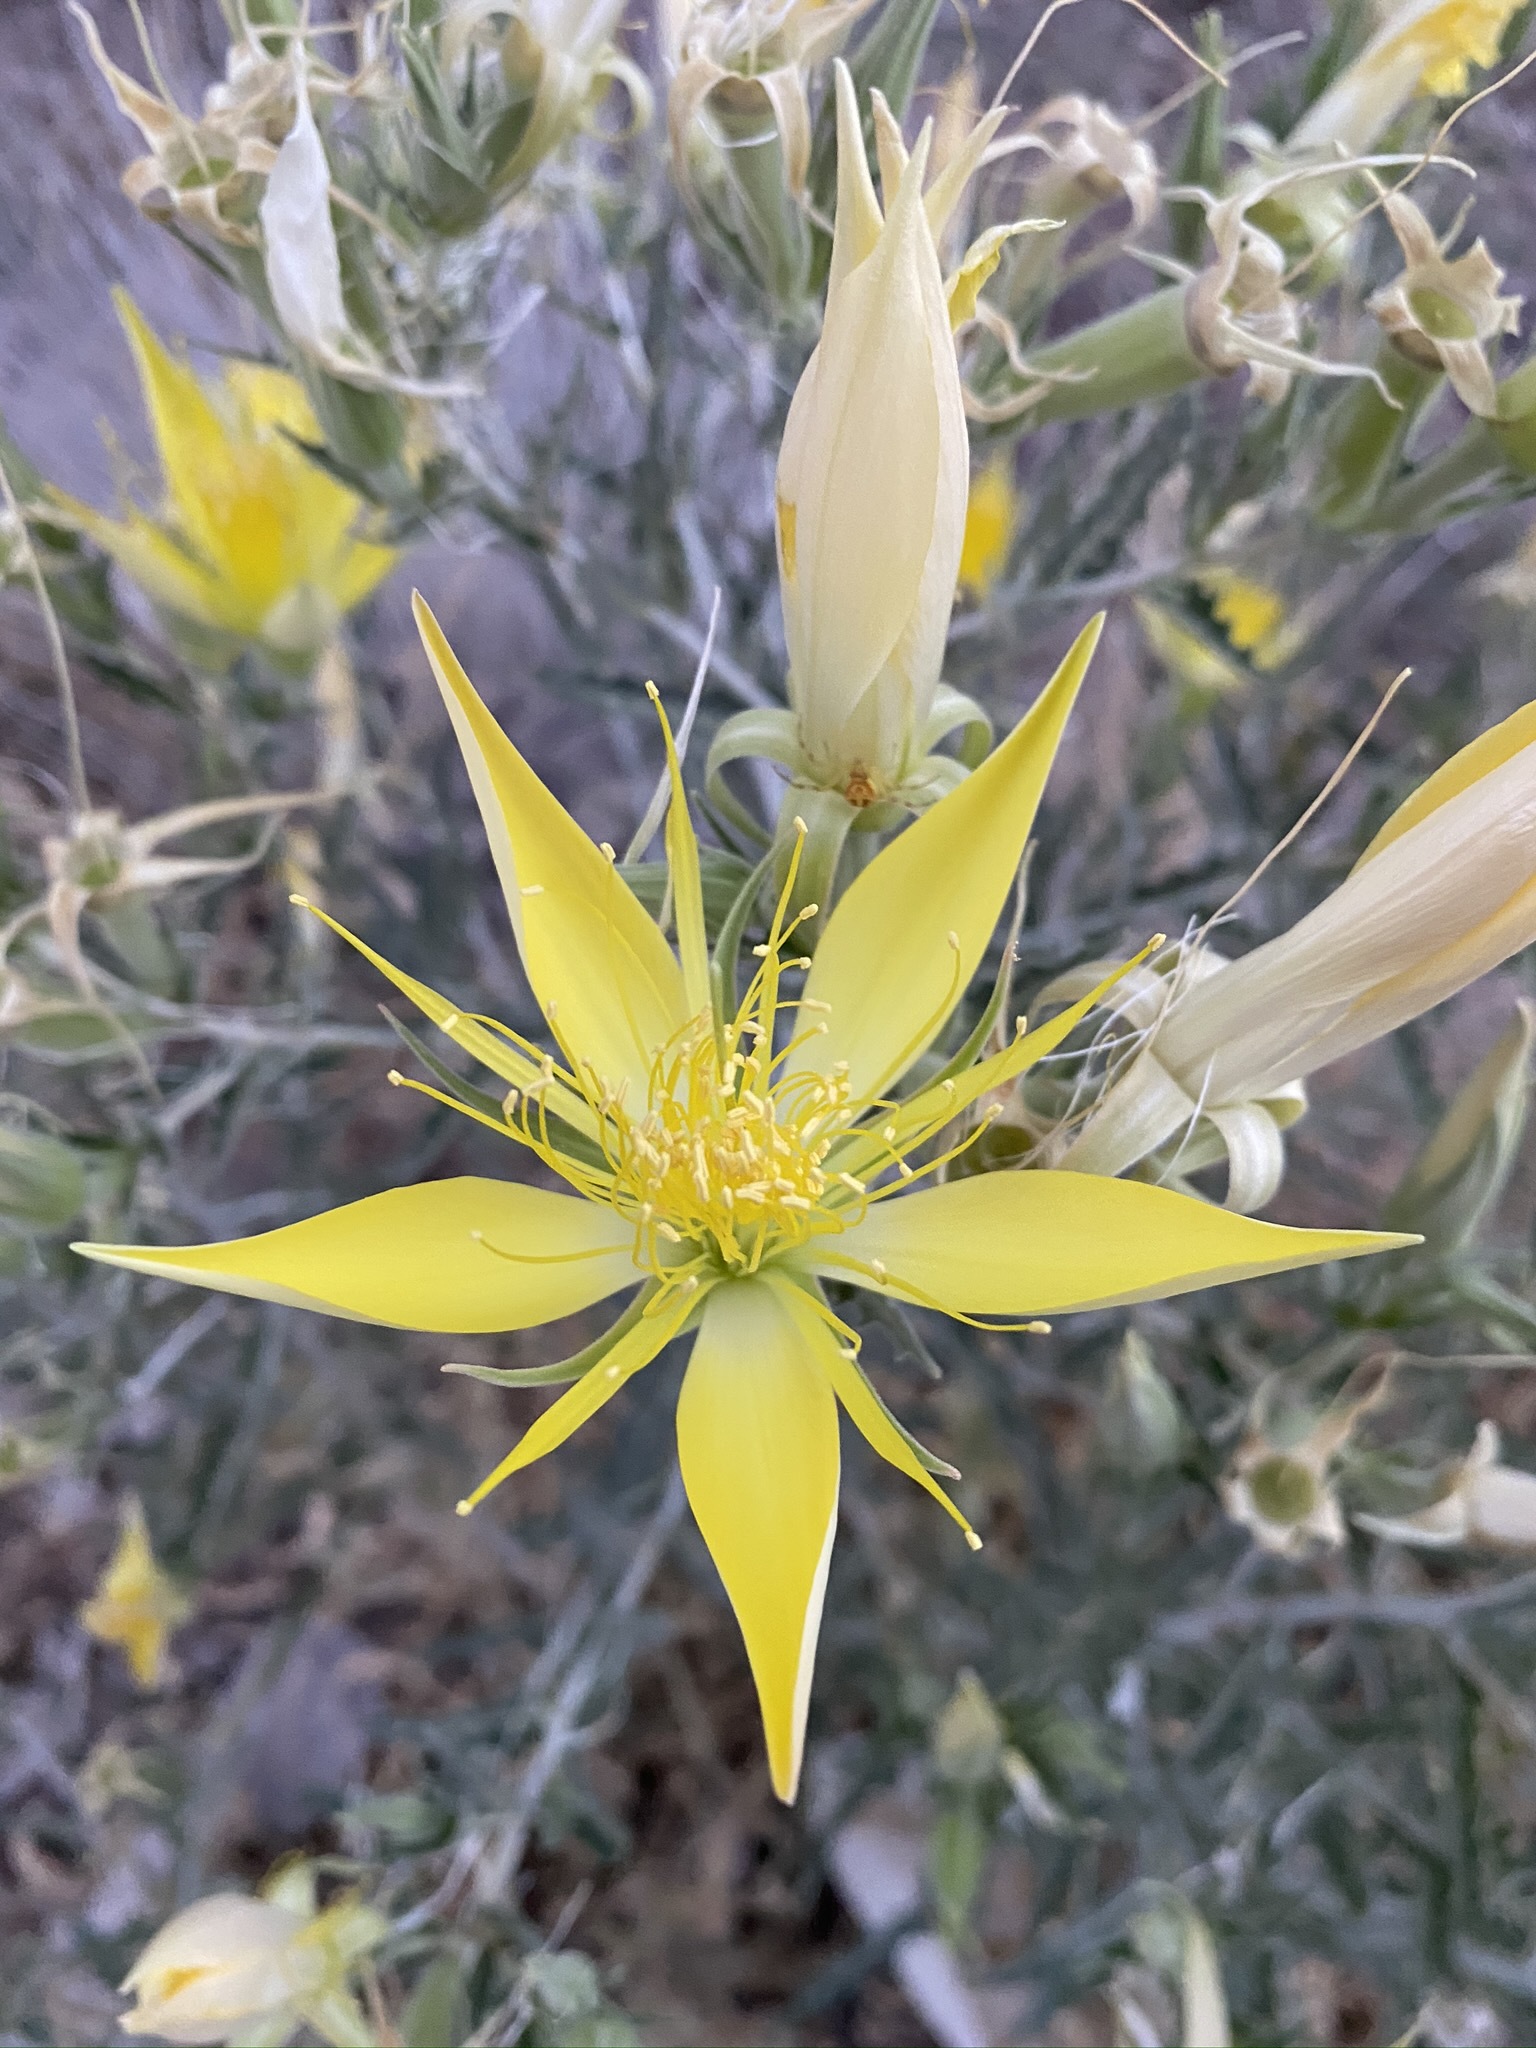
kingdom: Plantae
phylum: Tracheophyta
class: Magnoliopsida
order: Cornales
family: Loasaceae
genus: Mentzelia
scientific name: Mentzelia laevicaulis
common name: Smooth-stem blazingstar
